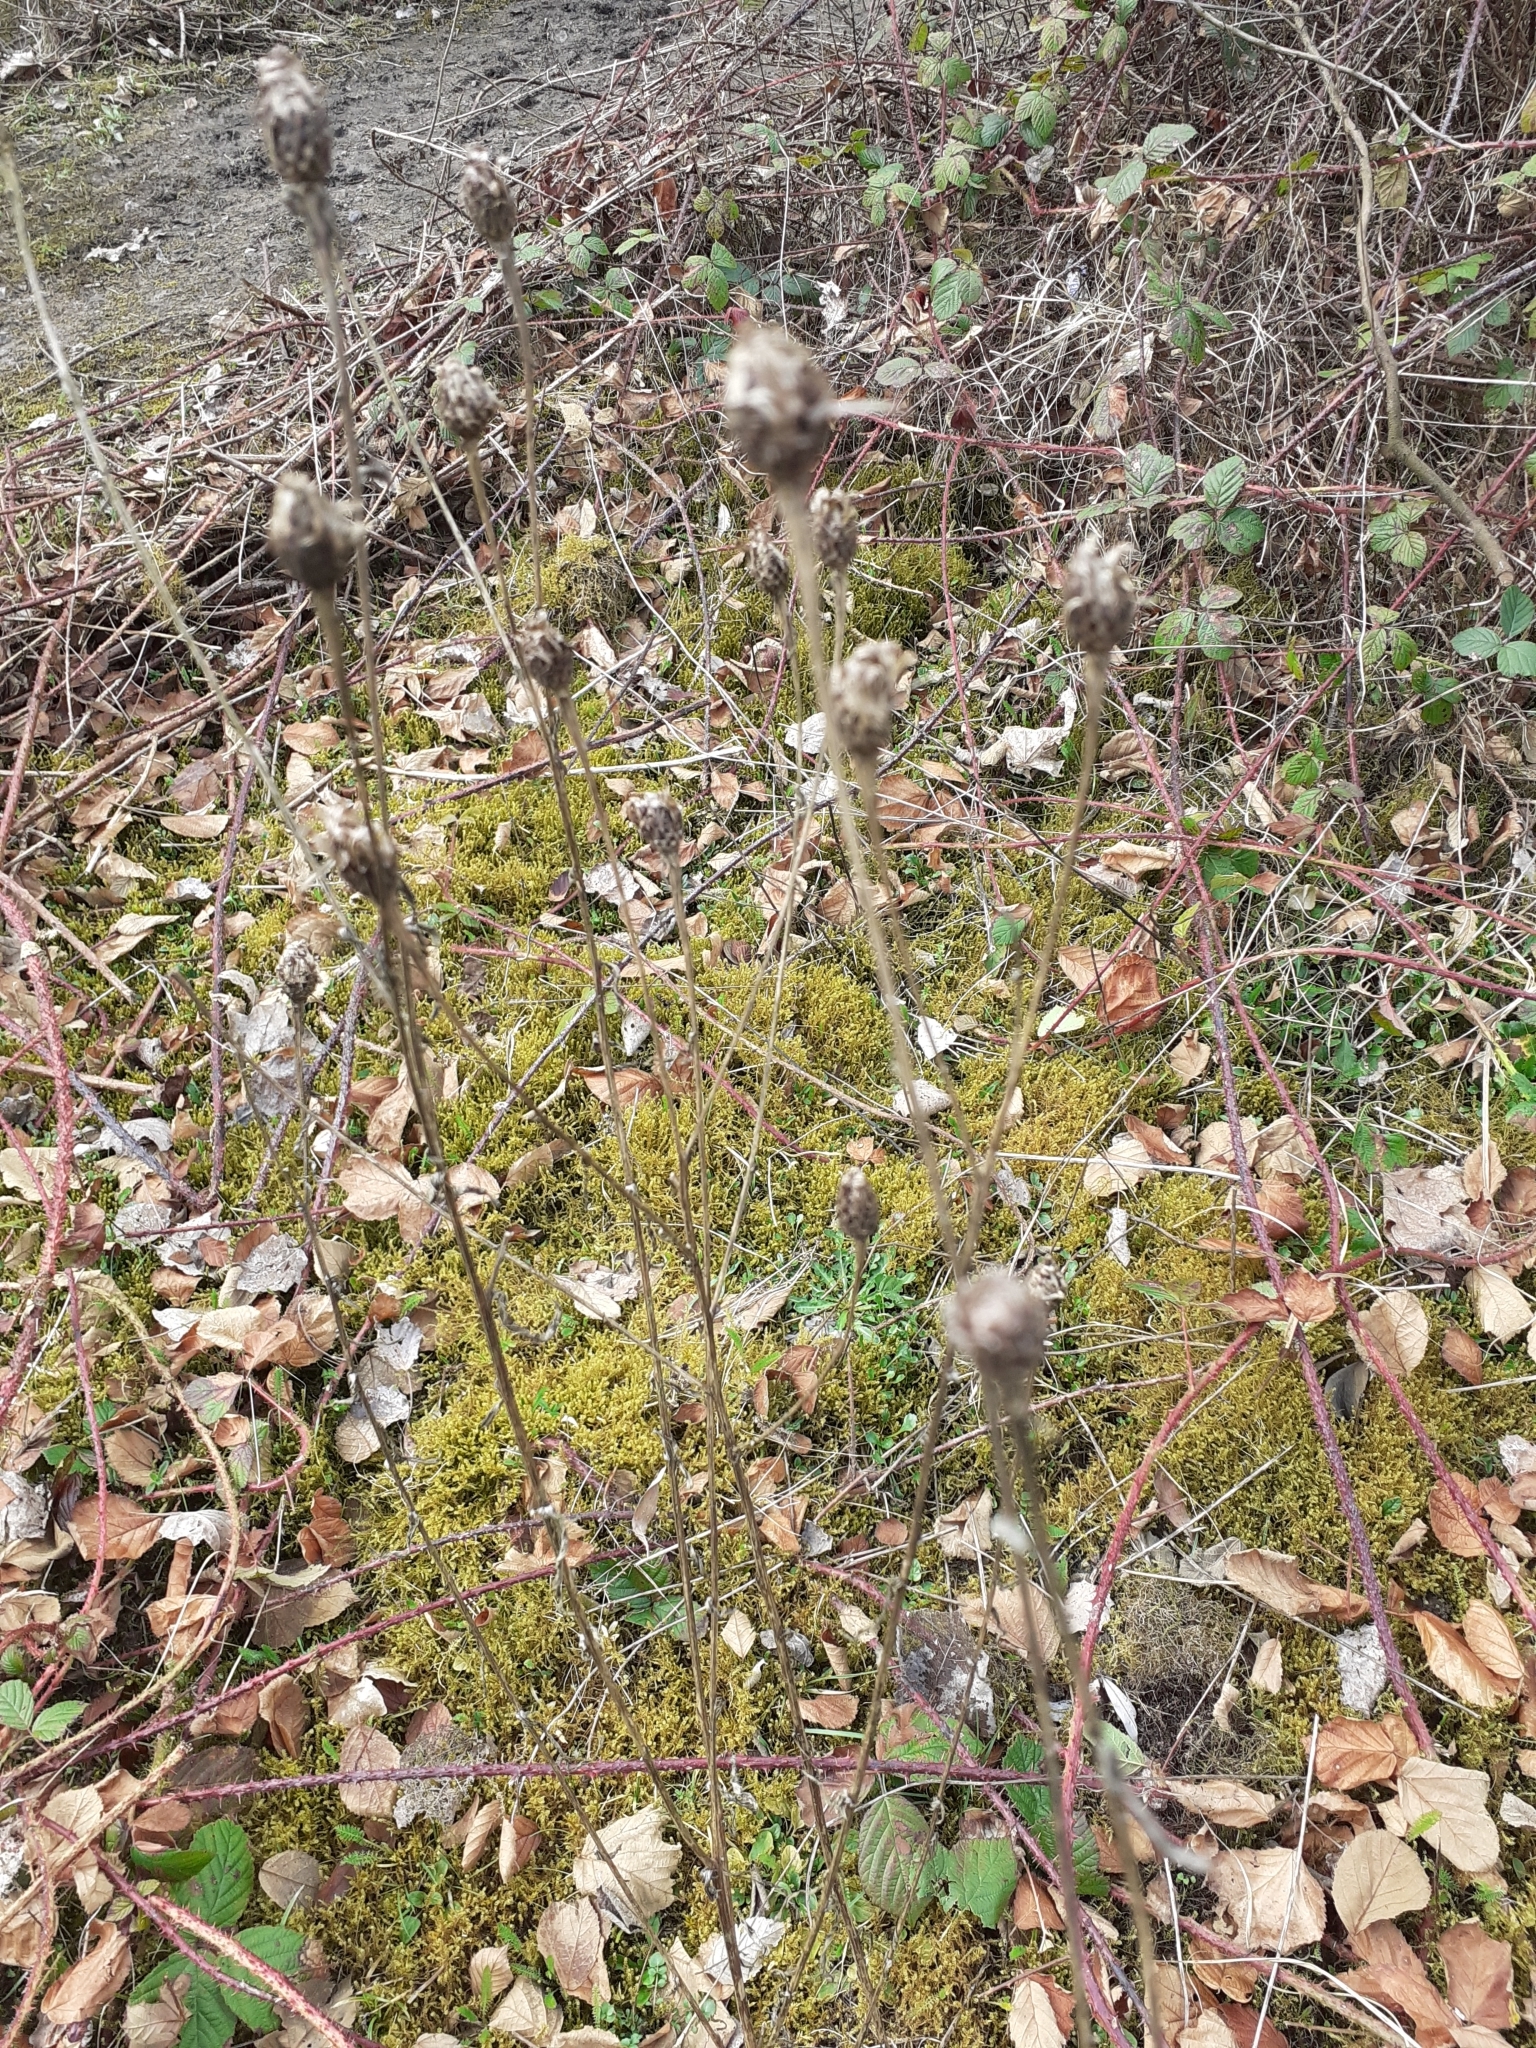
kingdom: Plantae
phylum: Tracheophyta
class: Magnoliopsida
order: Asterales
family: Asteraceae
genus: Centaurea
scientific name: Centaurea nigra
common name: Lesser knapweed
